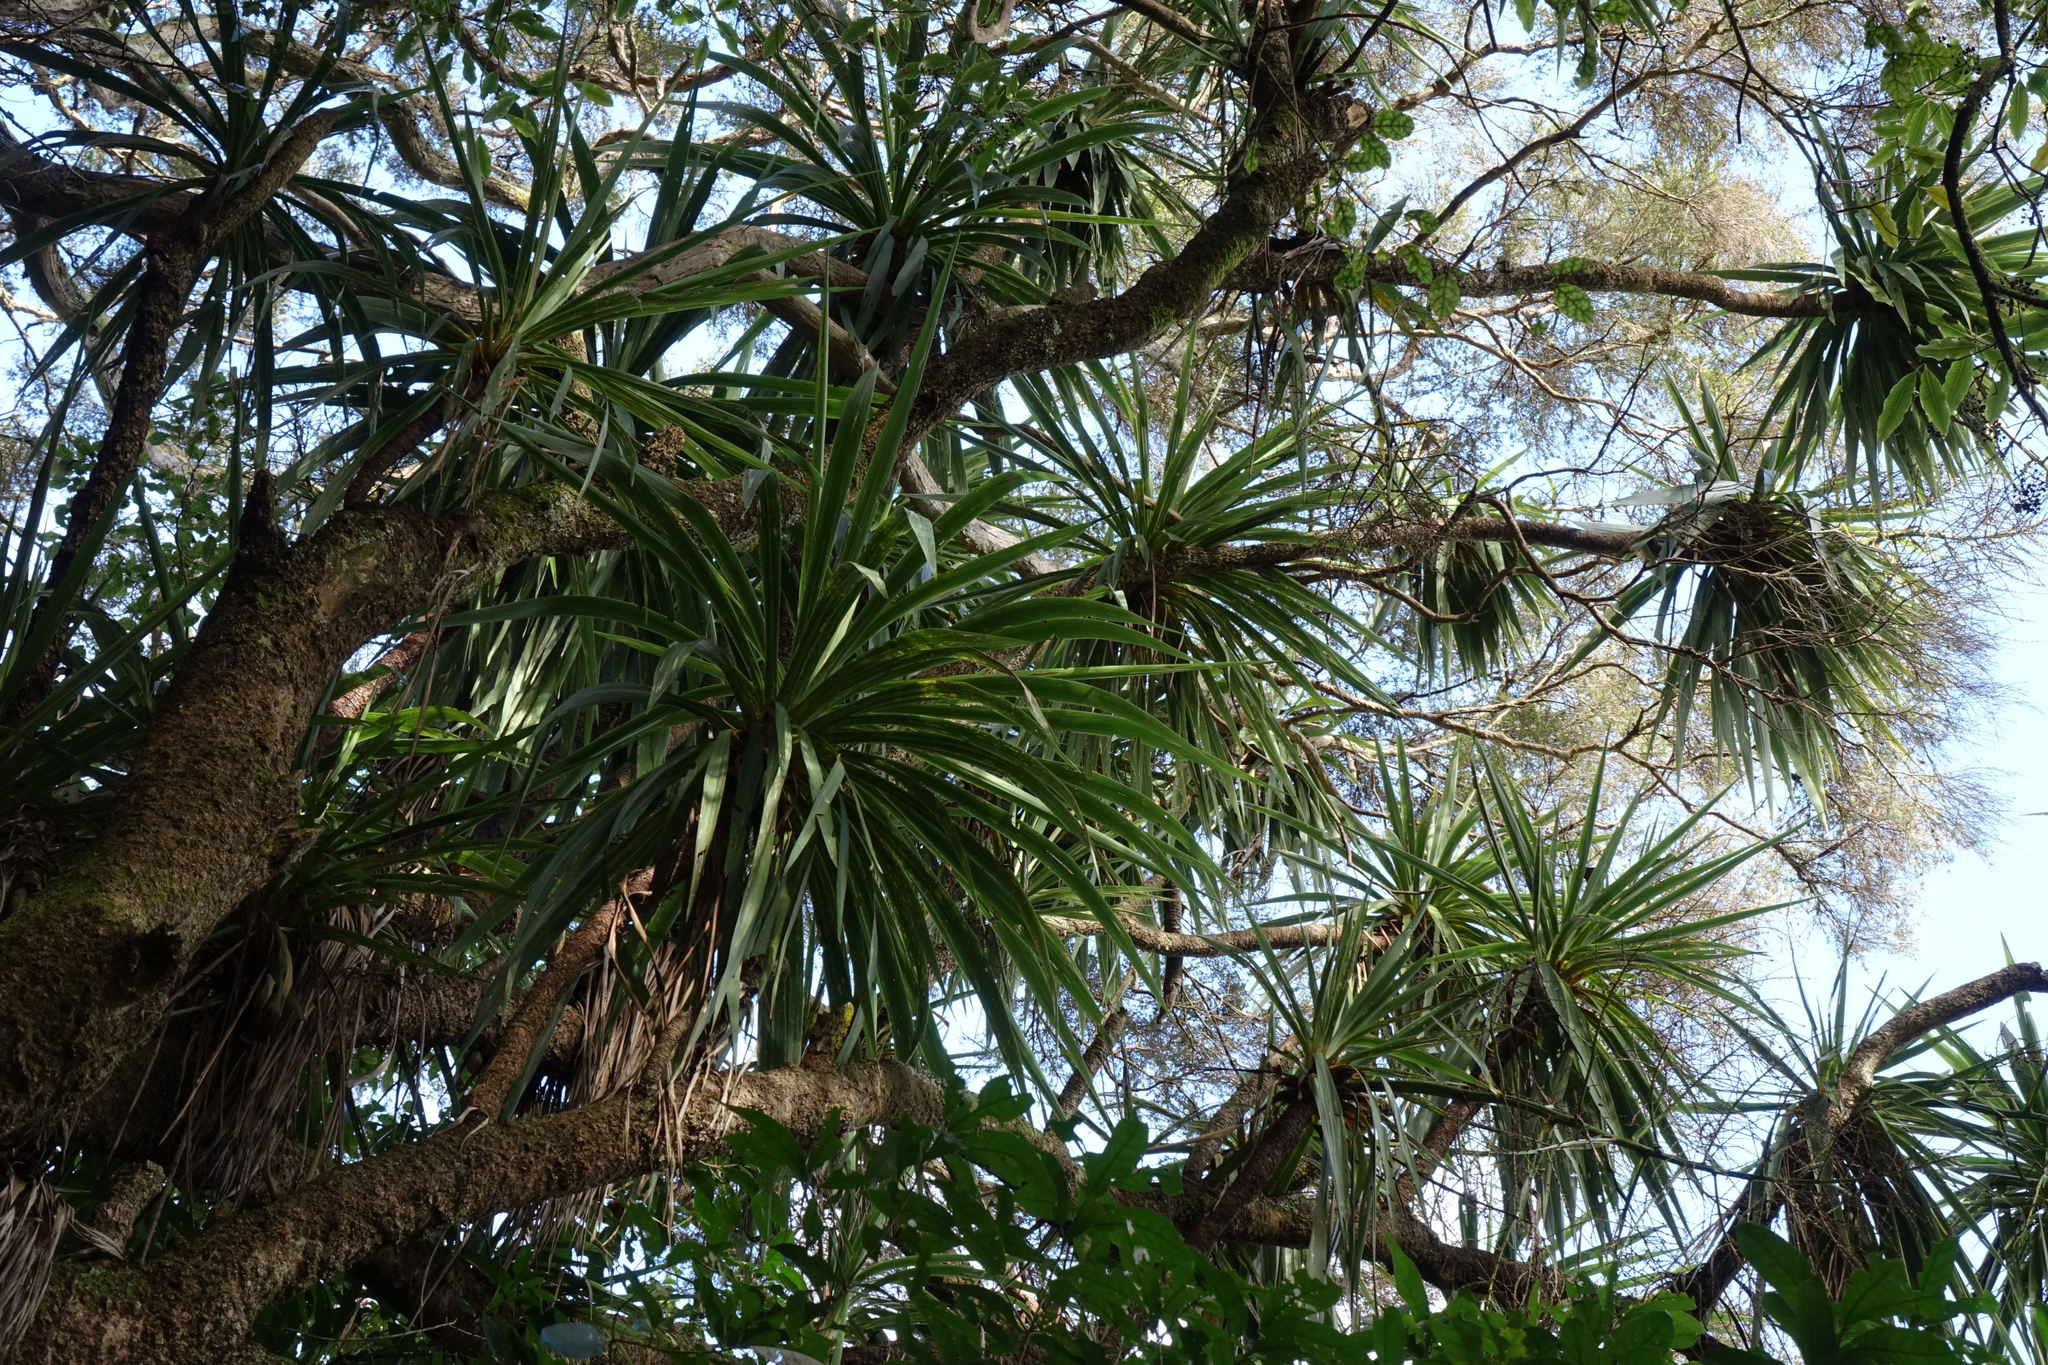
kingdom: Plantae
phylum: Tracheophyta
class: Liliopsida
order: Asparagales
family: Asparagaceae
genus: Cordyline
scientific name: Cordyline australis
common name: Cabbage-palm
